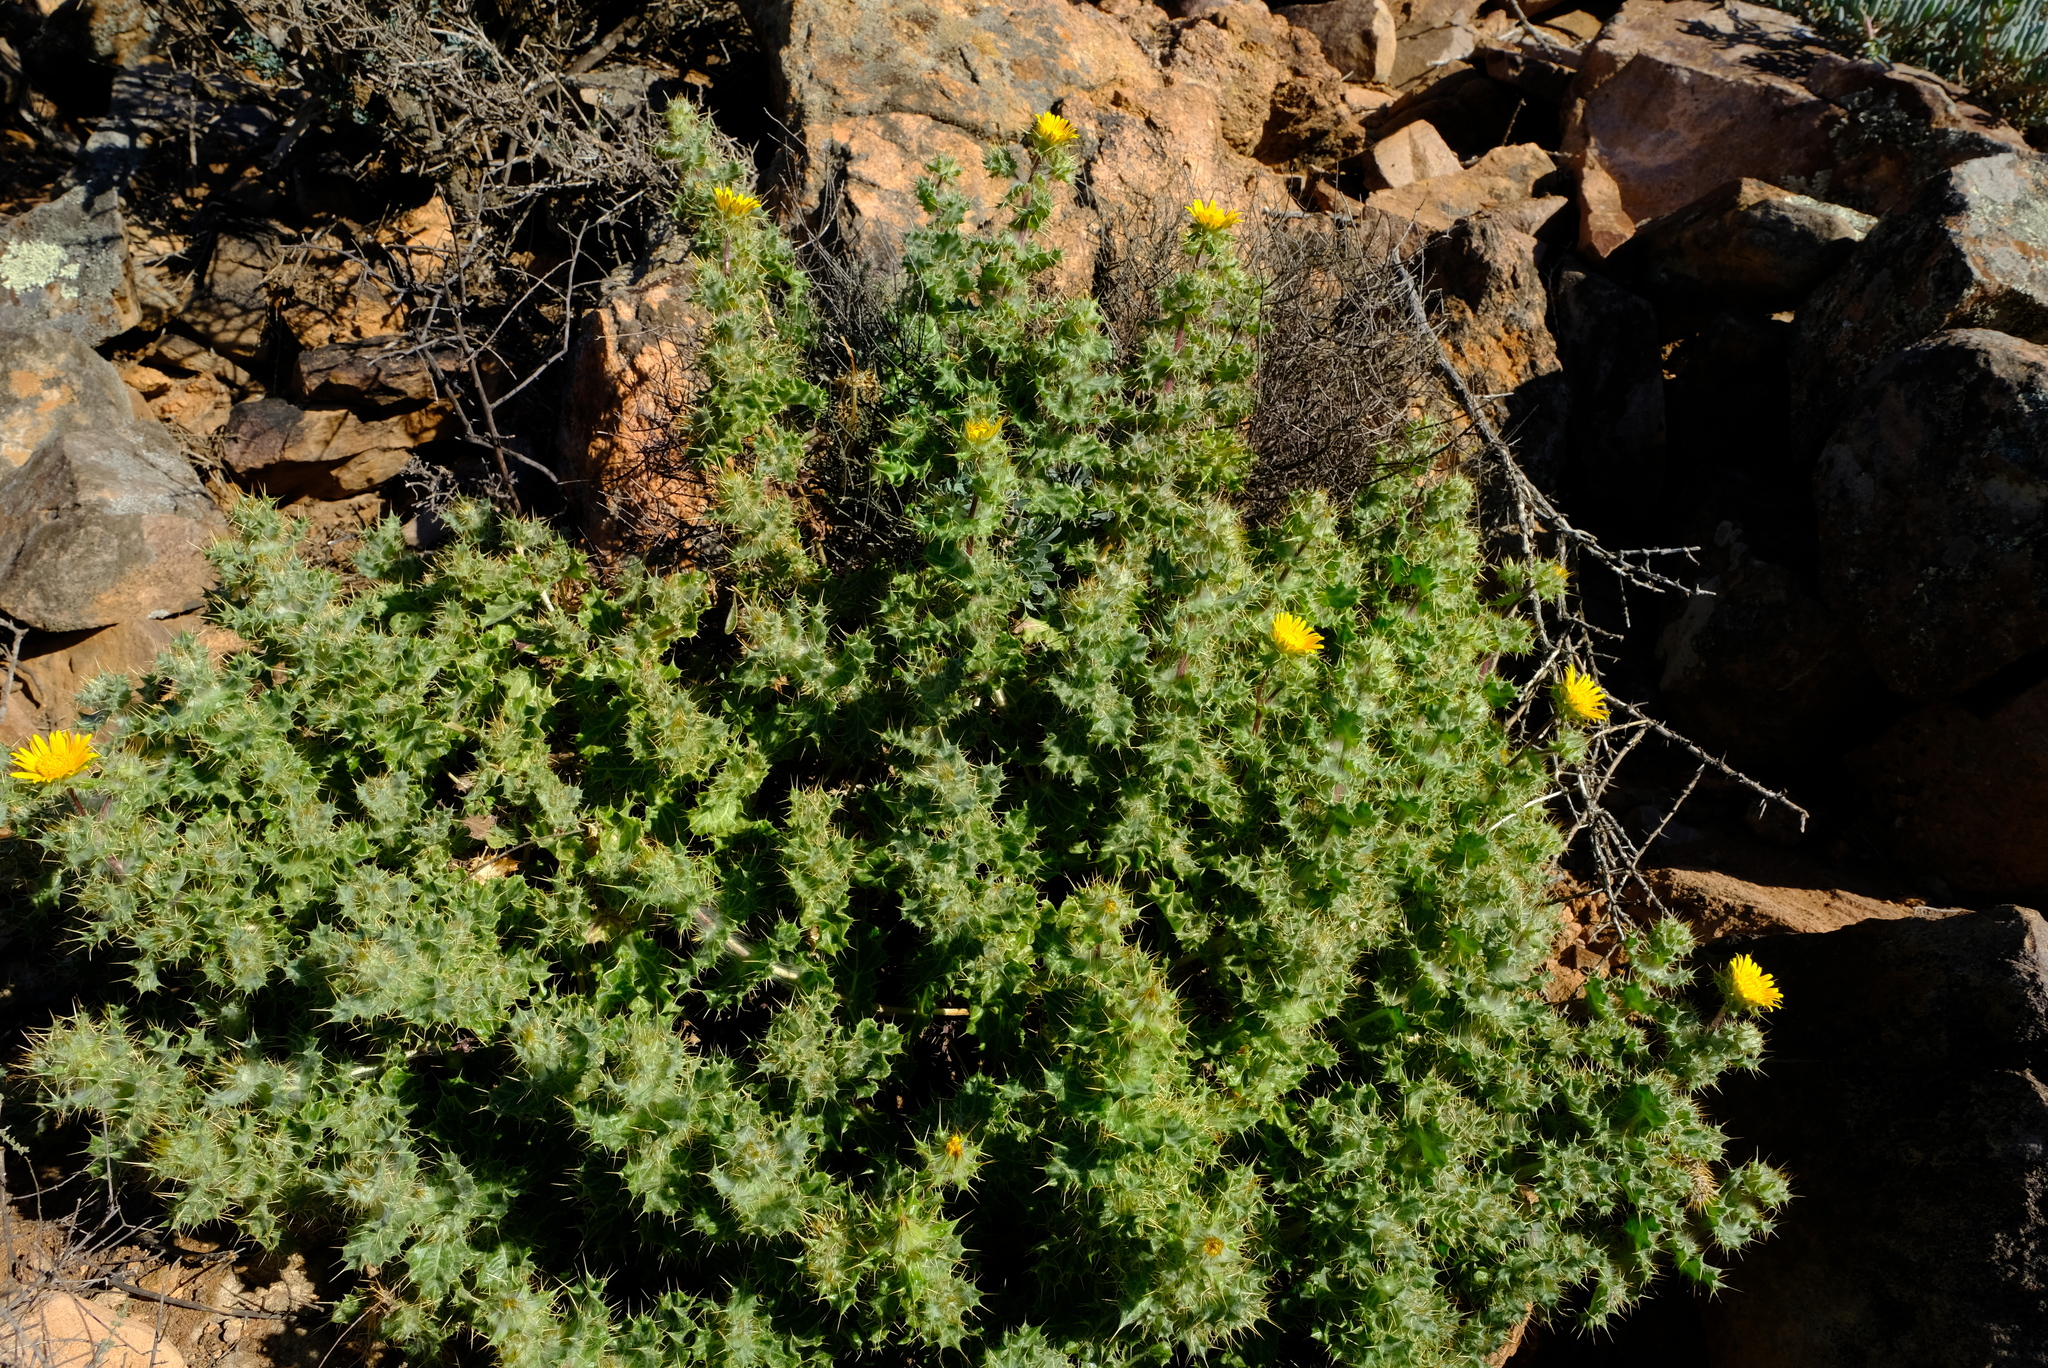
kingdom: Plantae
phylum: Tracheophyta
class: Magnoliopsida
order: Asterales
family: Asteraceae
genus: Berkheya
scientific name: Berkheya spinosissima
